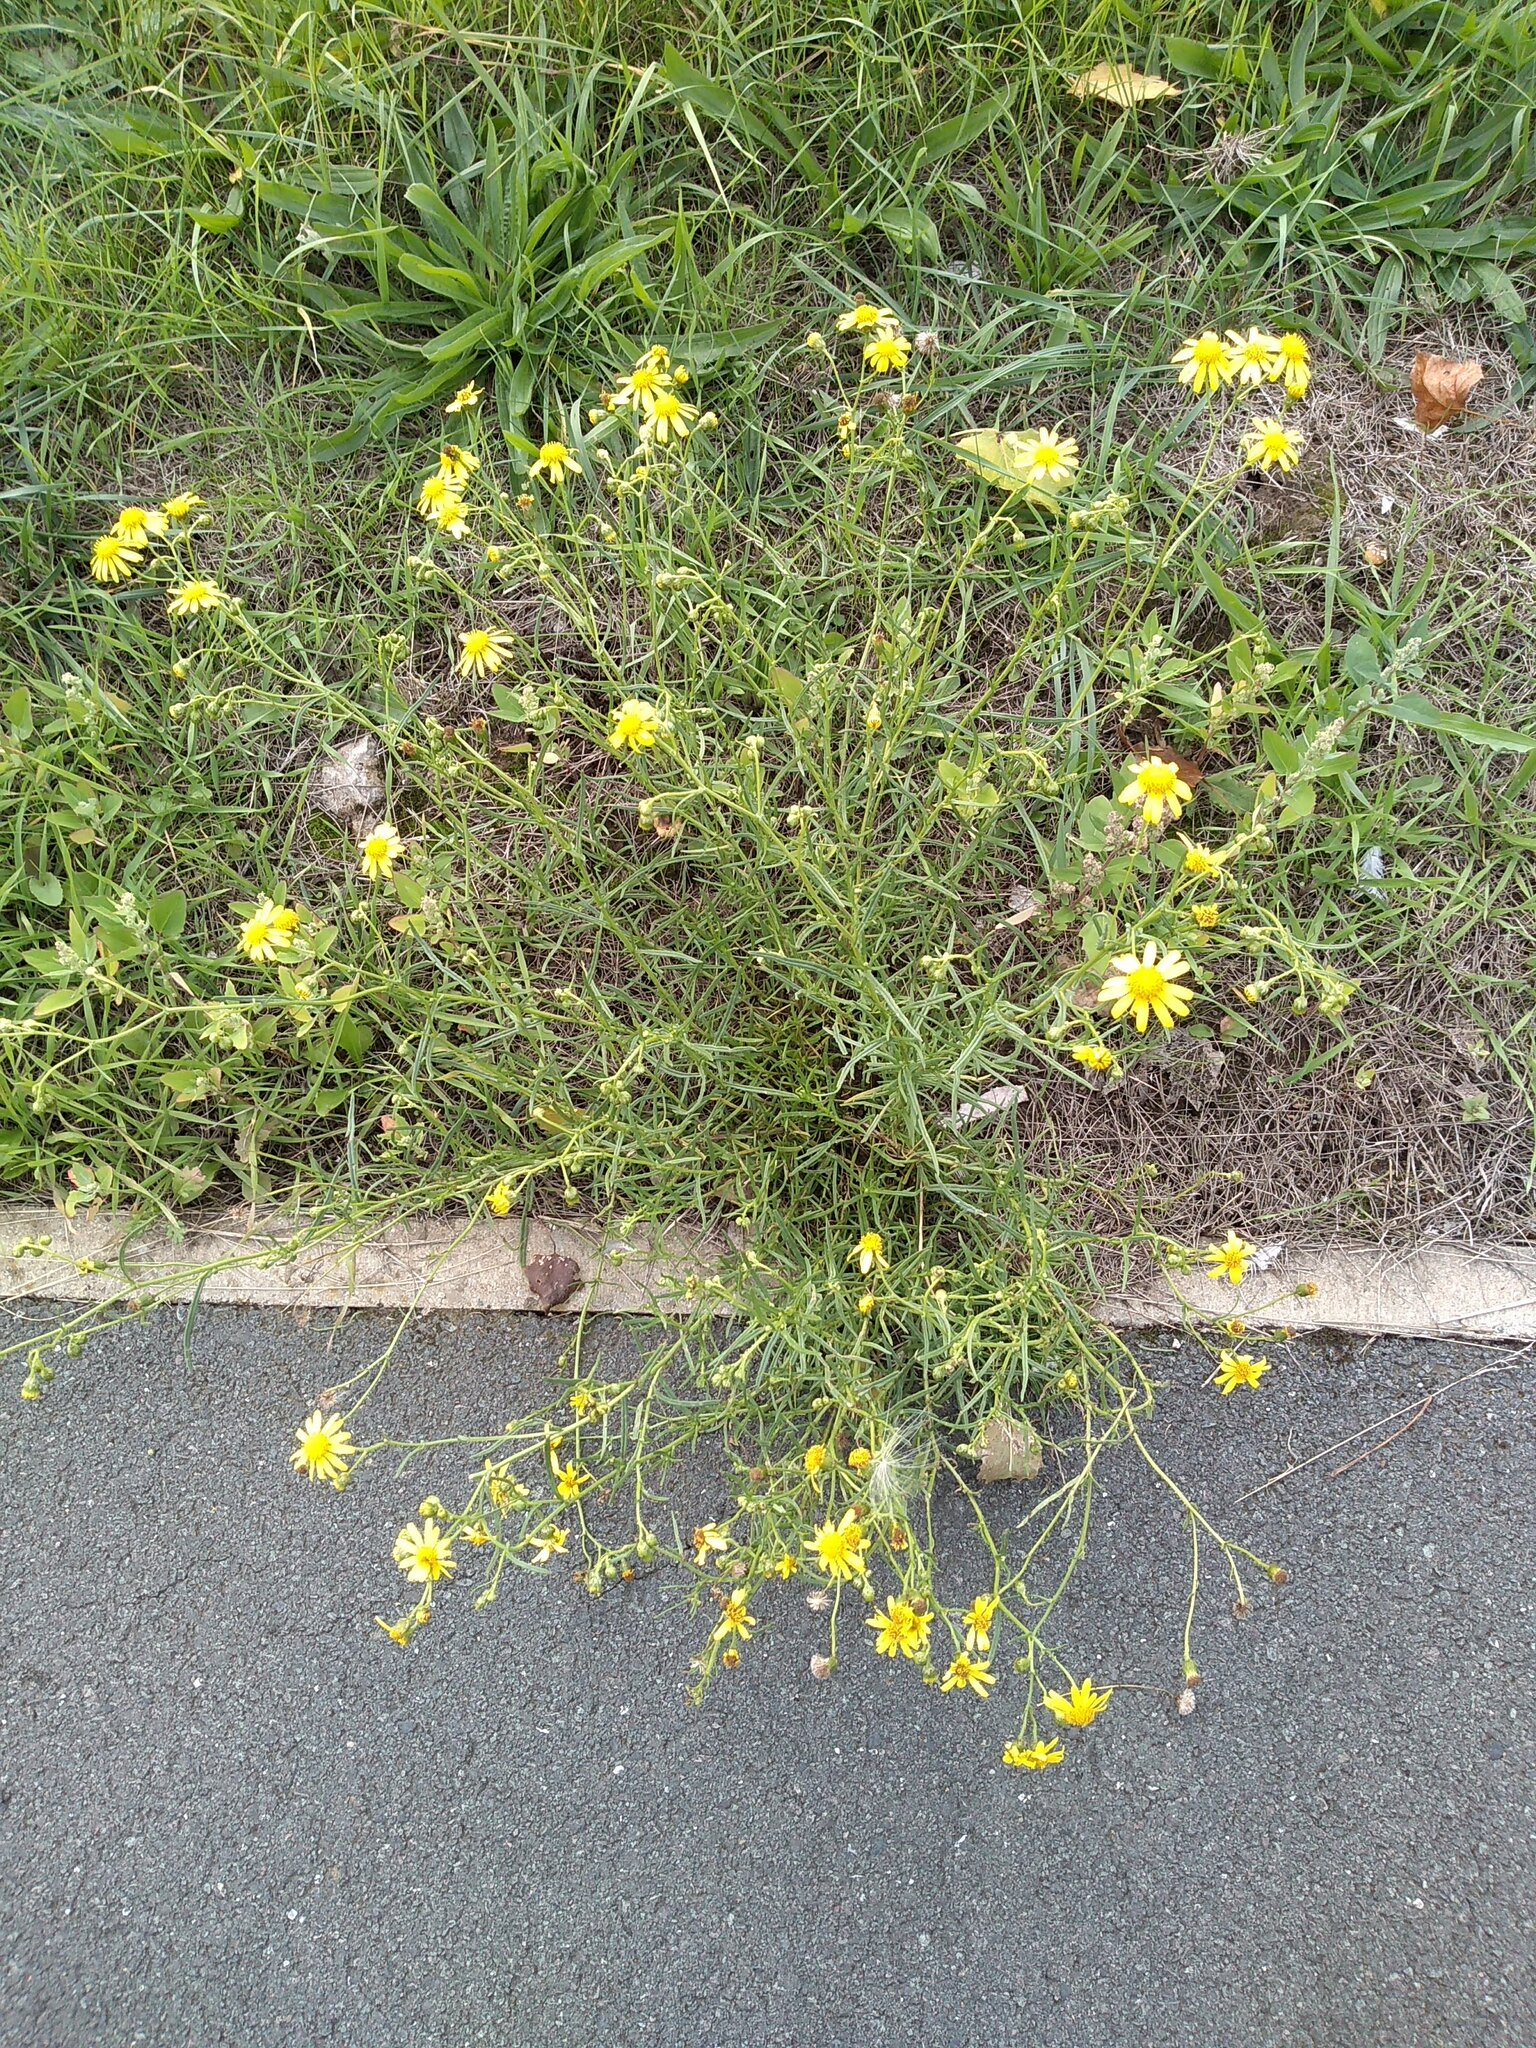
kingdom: Plantae
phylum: Tracheophyta
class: Magnoliopsida
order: Asterales
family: Asteraceae
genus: Senecio
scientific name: Senecio inaequidens
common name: Narrow-leaved ragwort
